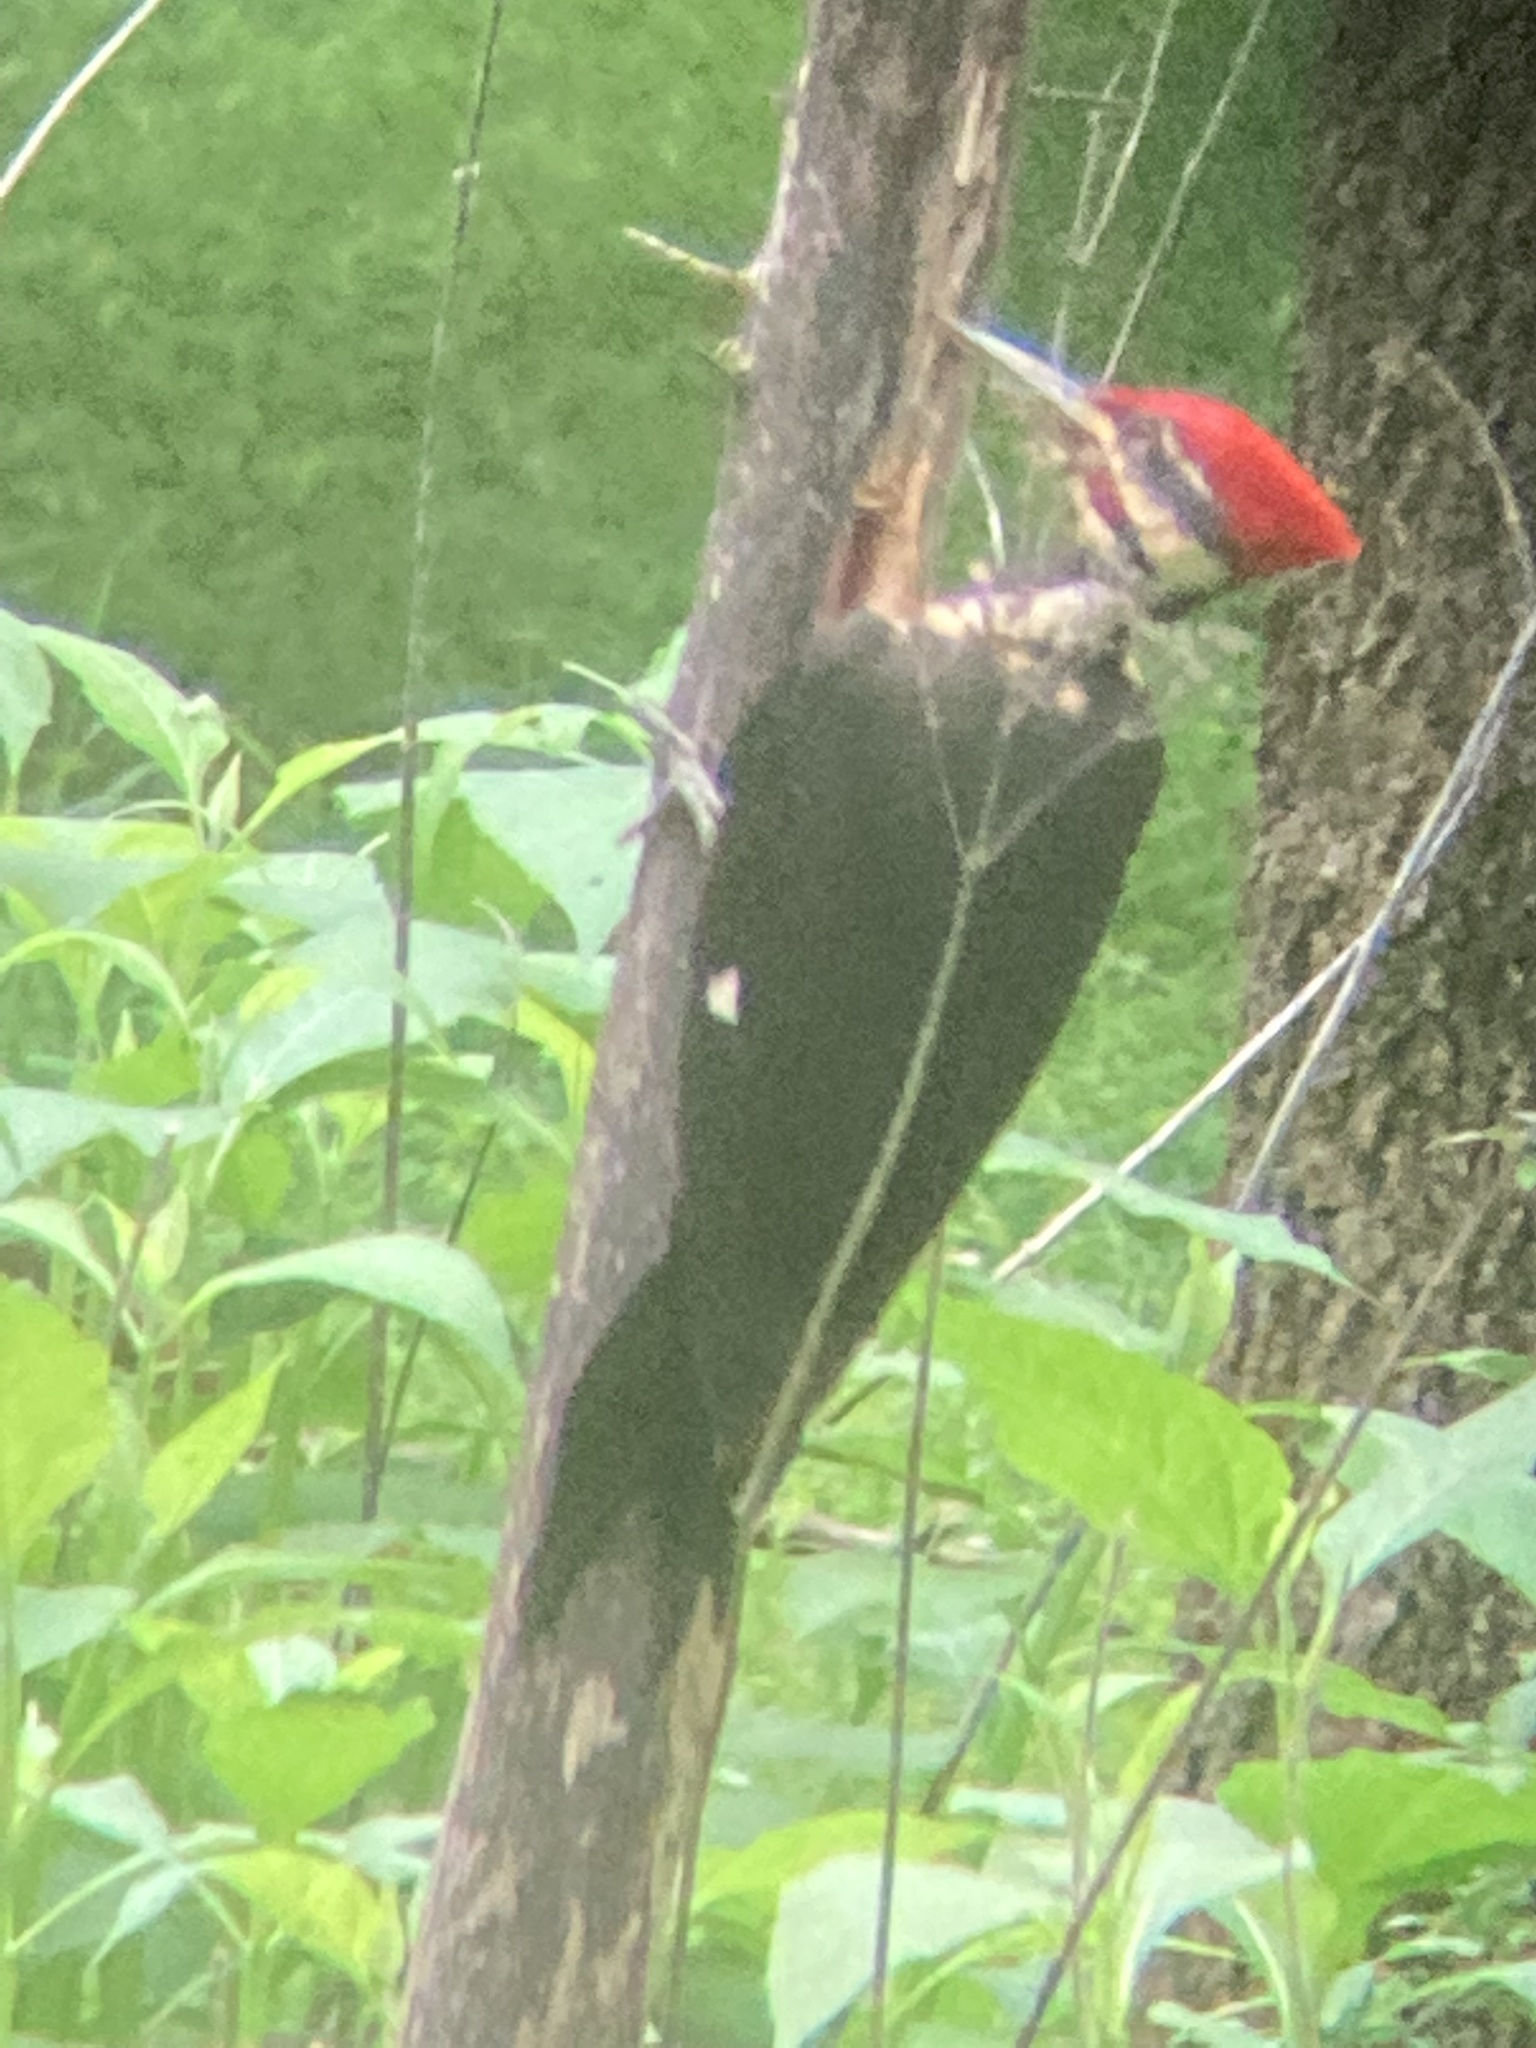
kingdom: Animalia
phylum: Chordata
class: Aves
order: Piciformes
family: Picidae
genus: Dryocopus
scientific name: Dryocopus pileatus
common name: Pileated woodpecker
